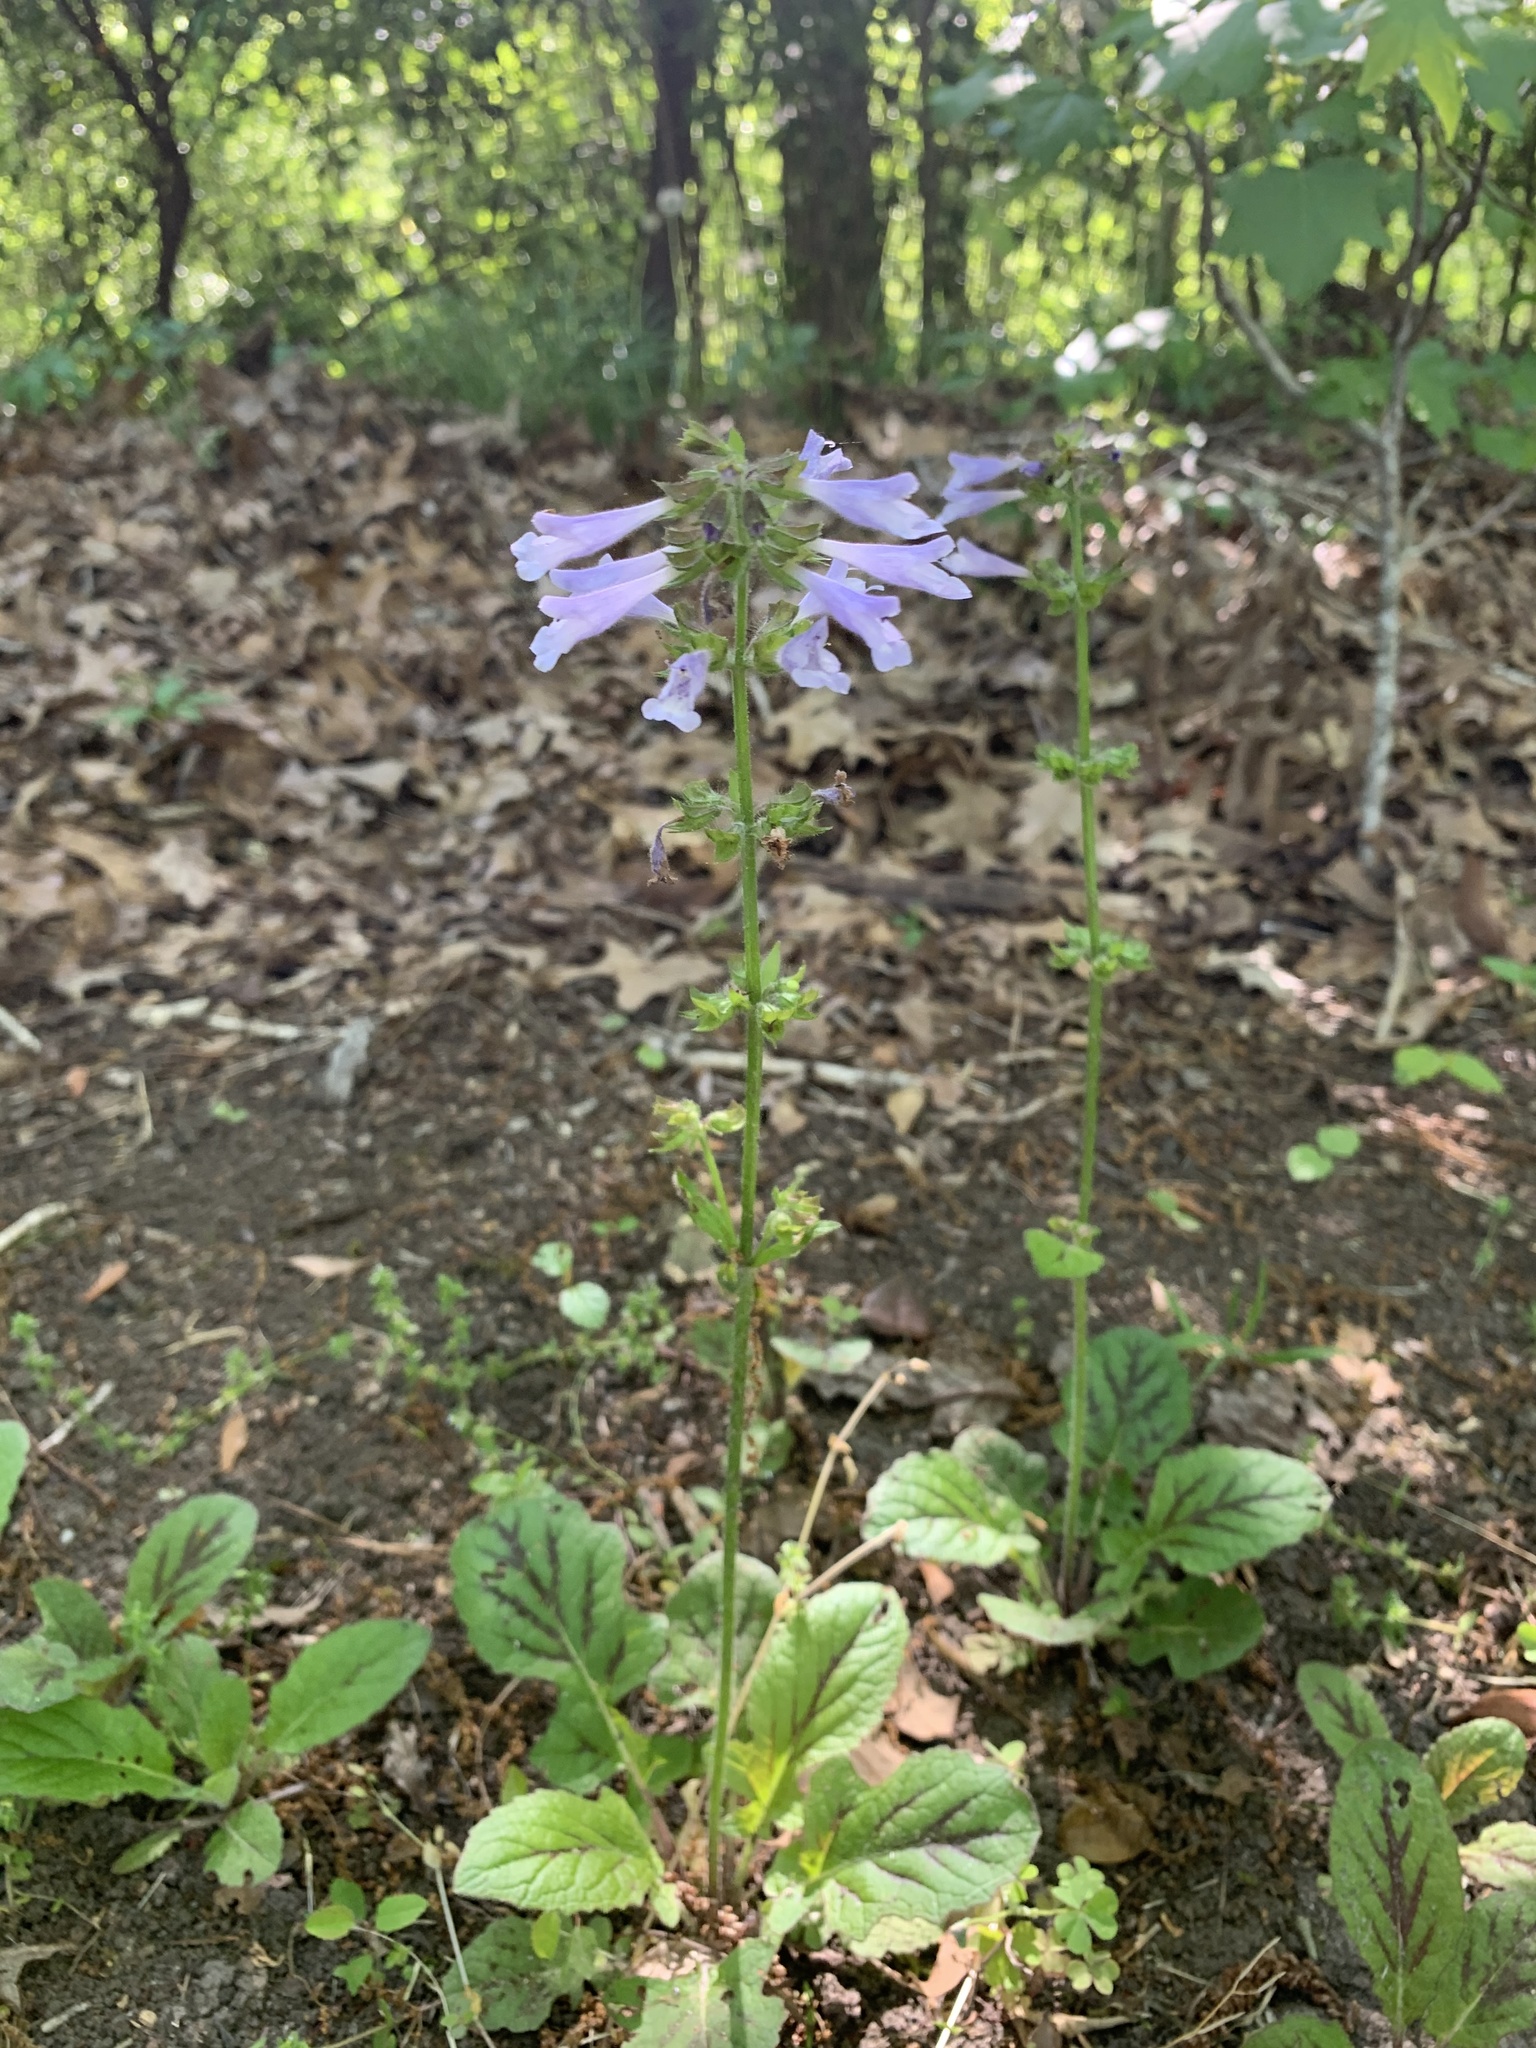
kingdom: Plantae
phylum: Tracheophyta
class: Magnoliopsida
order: Lamiales
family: Lamiaceae
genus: Salvia
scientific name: Salvia lyrata
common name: Cancerweed
